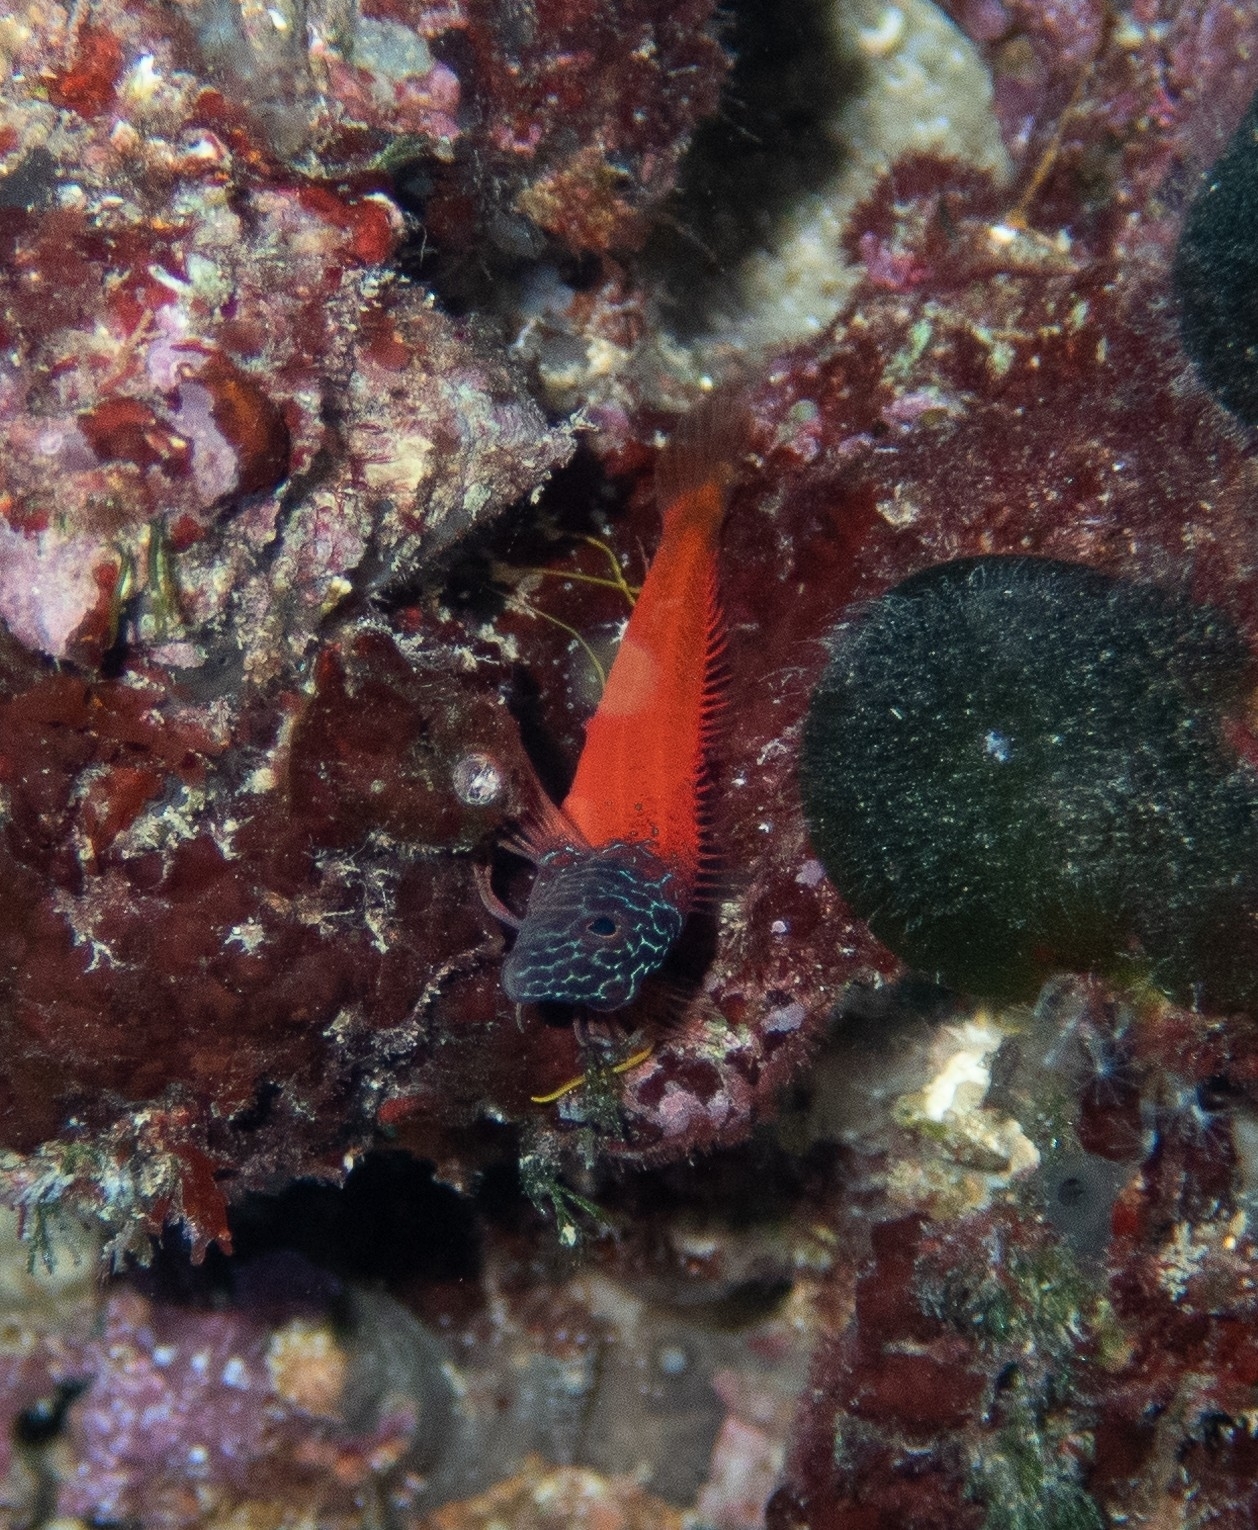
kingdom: Animalia
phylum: Chordata
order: Perciformes
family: Blenniidae
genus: Microlipophrys
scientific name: Microlipophrys nigriceps
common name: Black-headed blenny
